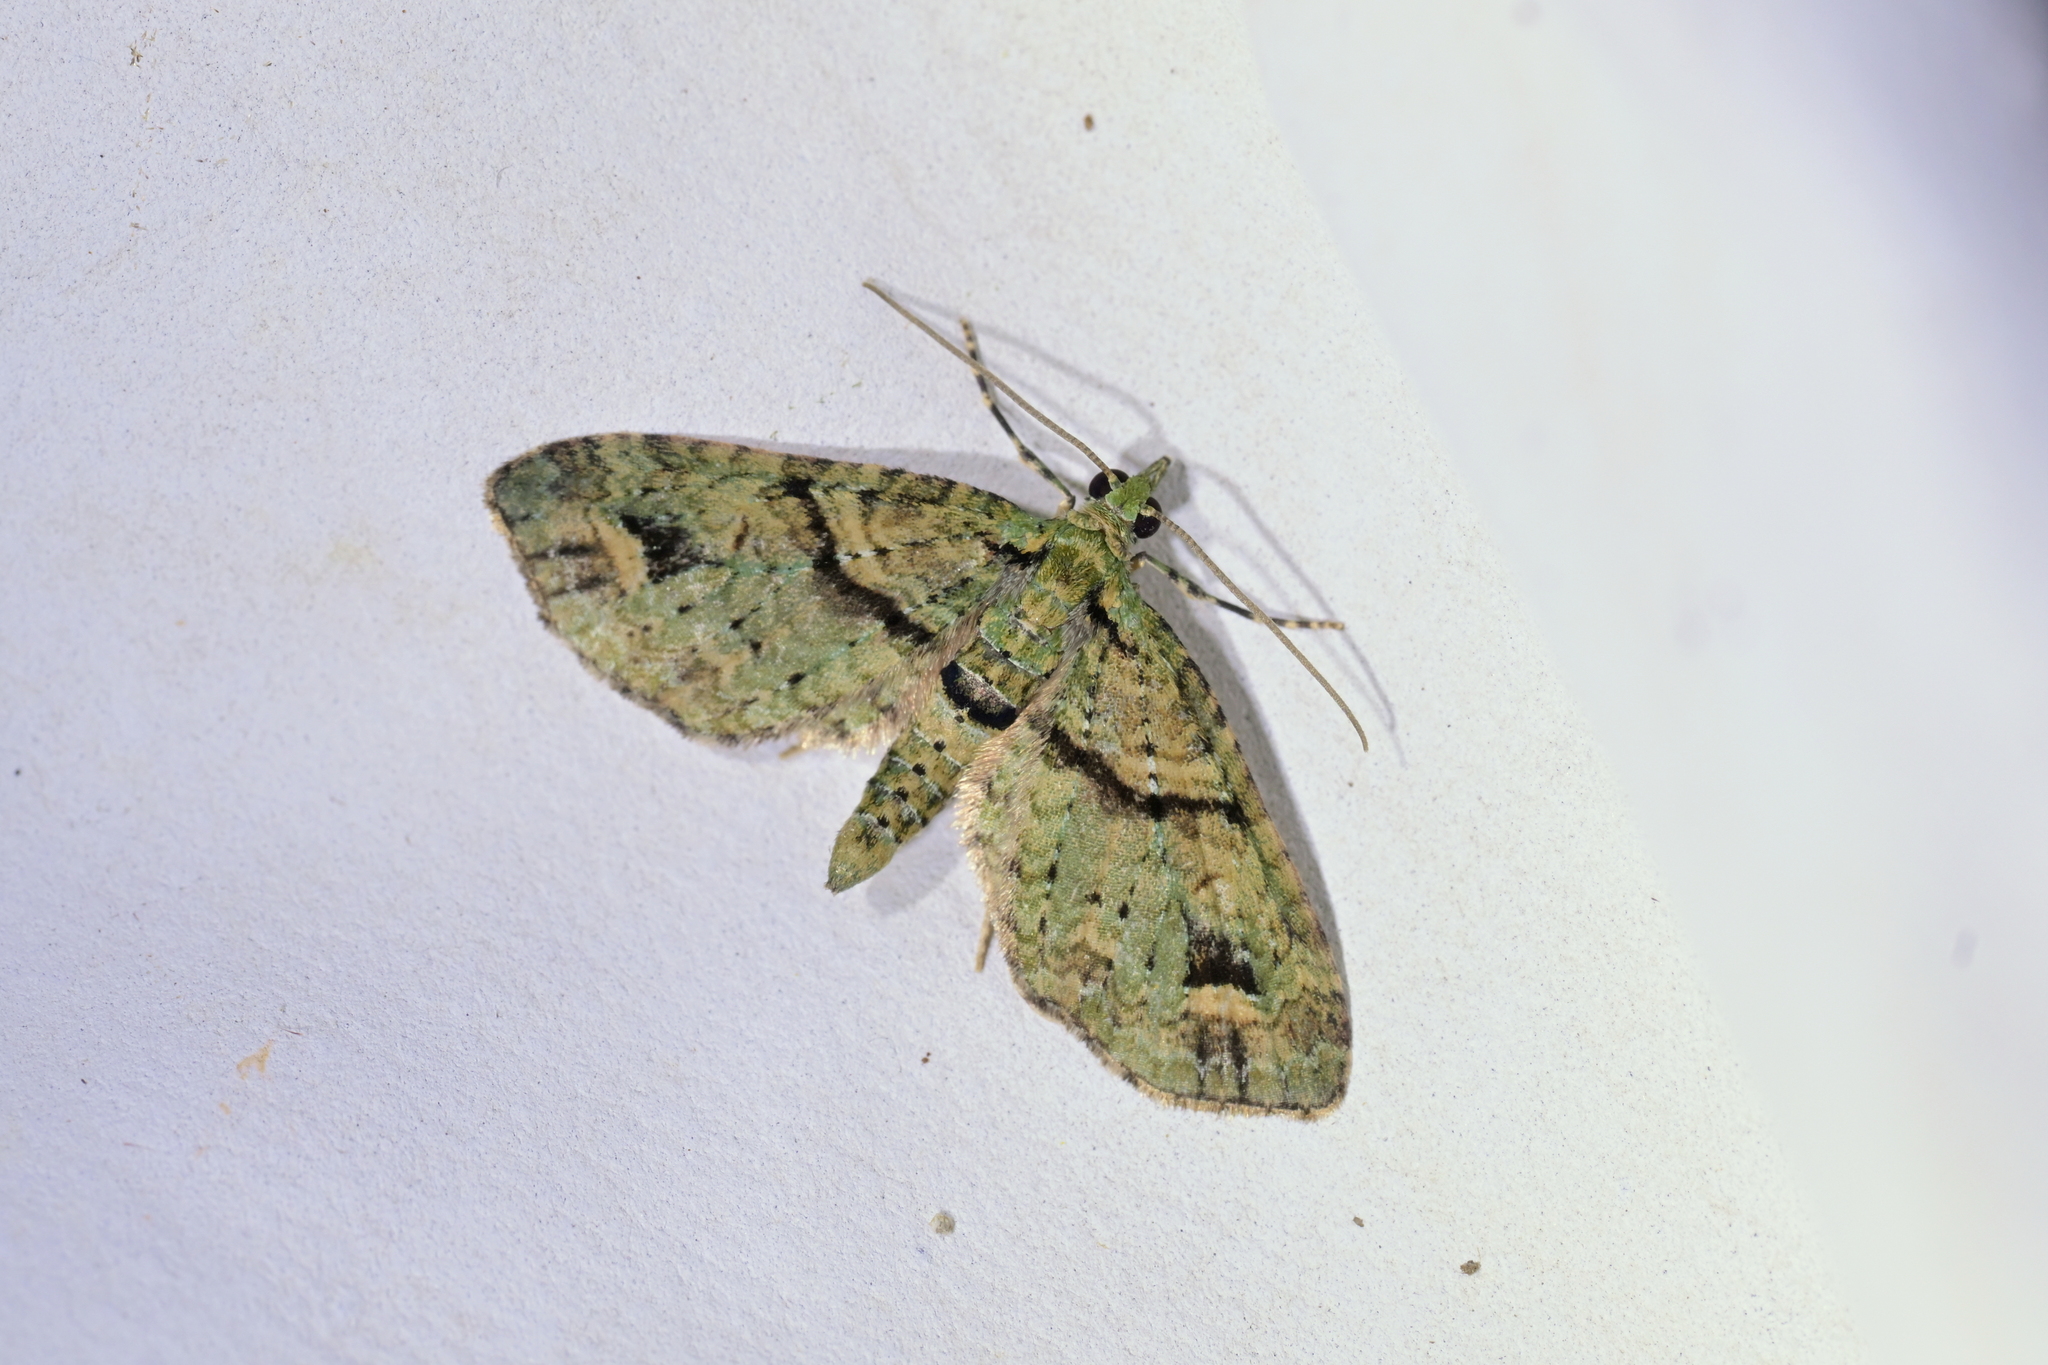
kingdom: Animalia
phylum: Arthropoda
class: Insecta
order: Lepidoptera
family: Geometridae
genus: Idaea
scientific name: Idaea mutanda
